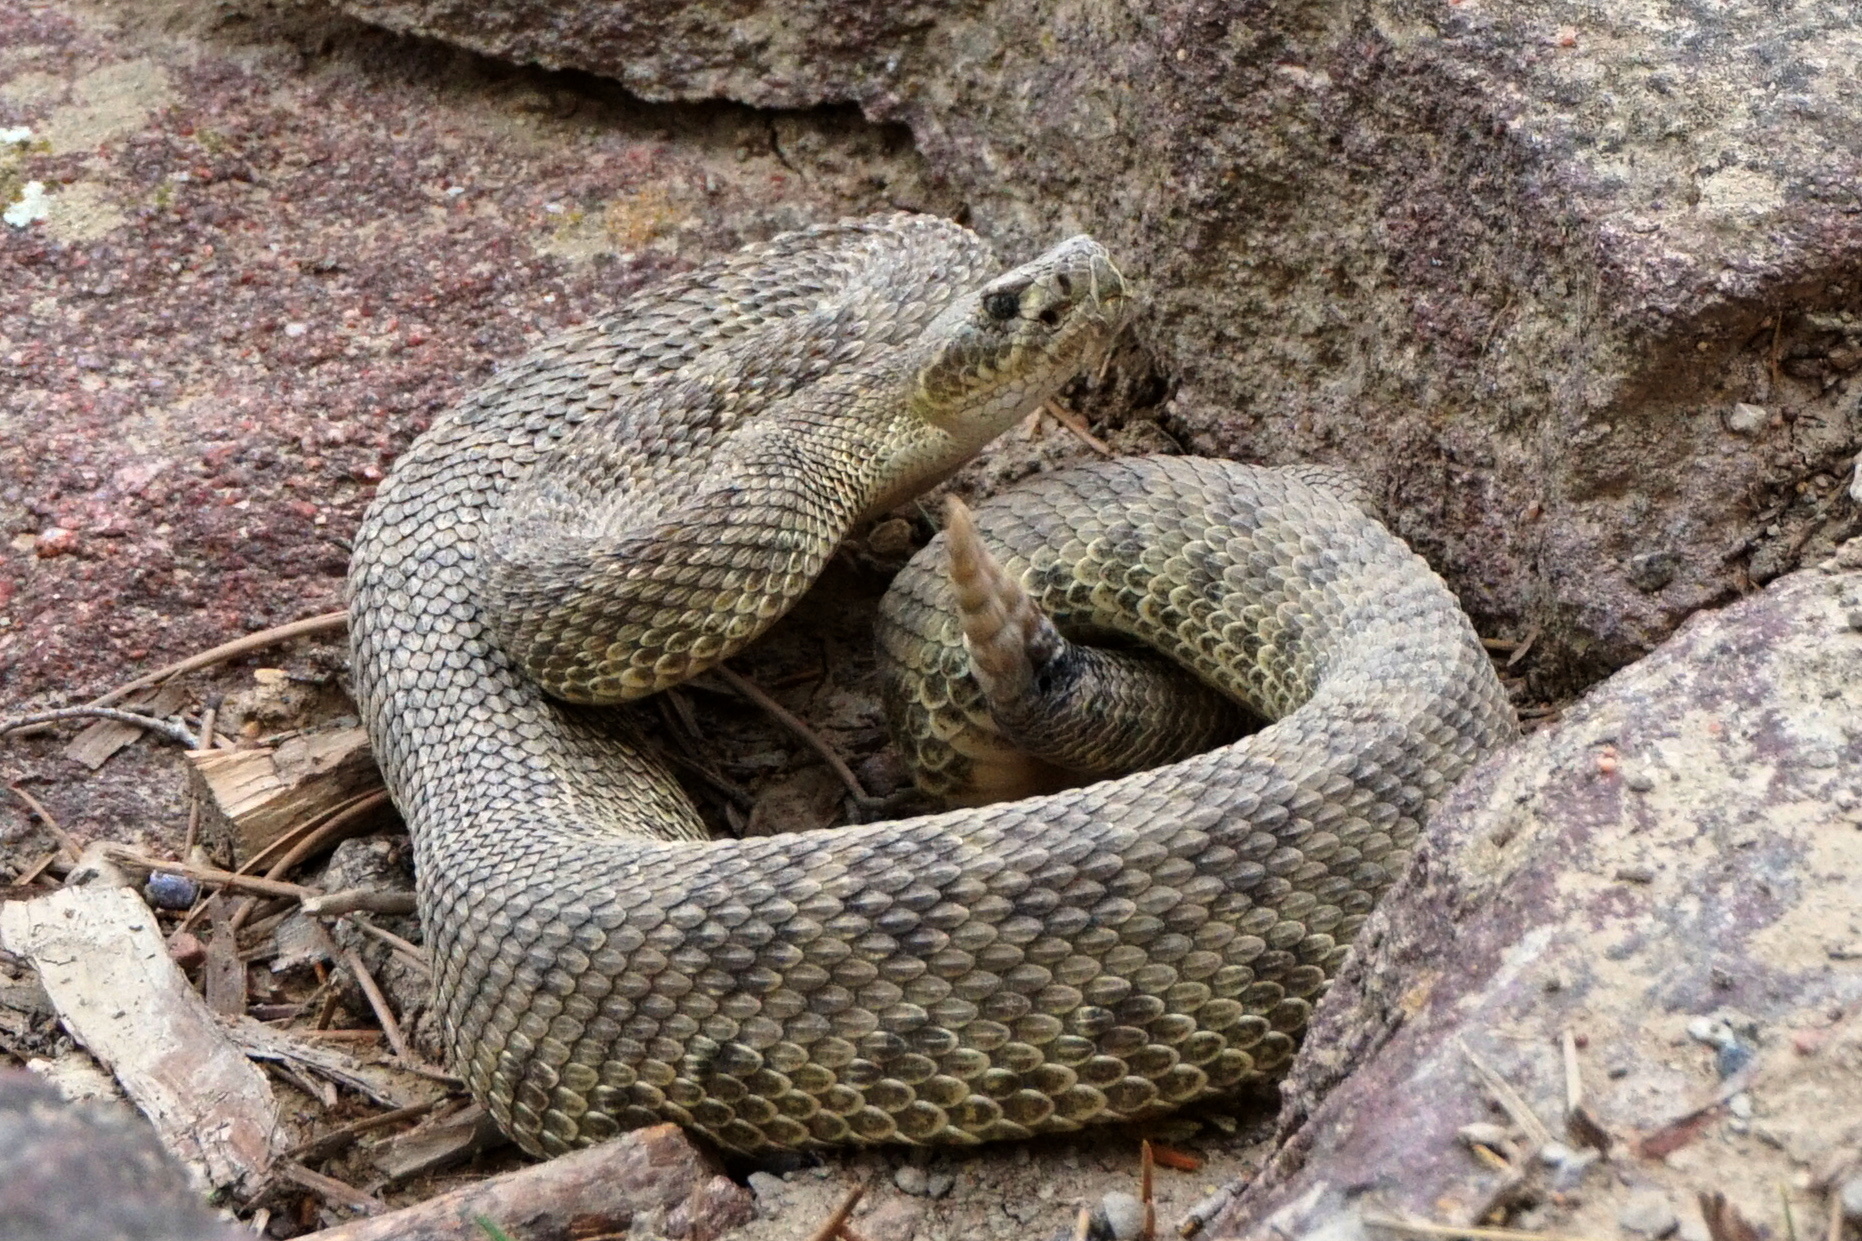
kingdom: Animalia
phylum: Chordata
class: Squamata
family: Viperidae
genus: Crotalus
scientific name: Crotalus viridis
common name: Prairie rattlesnake
